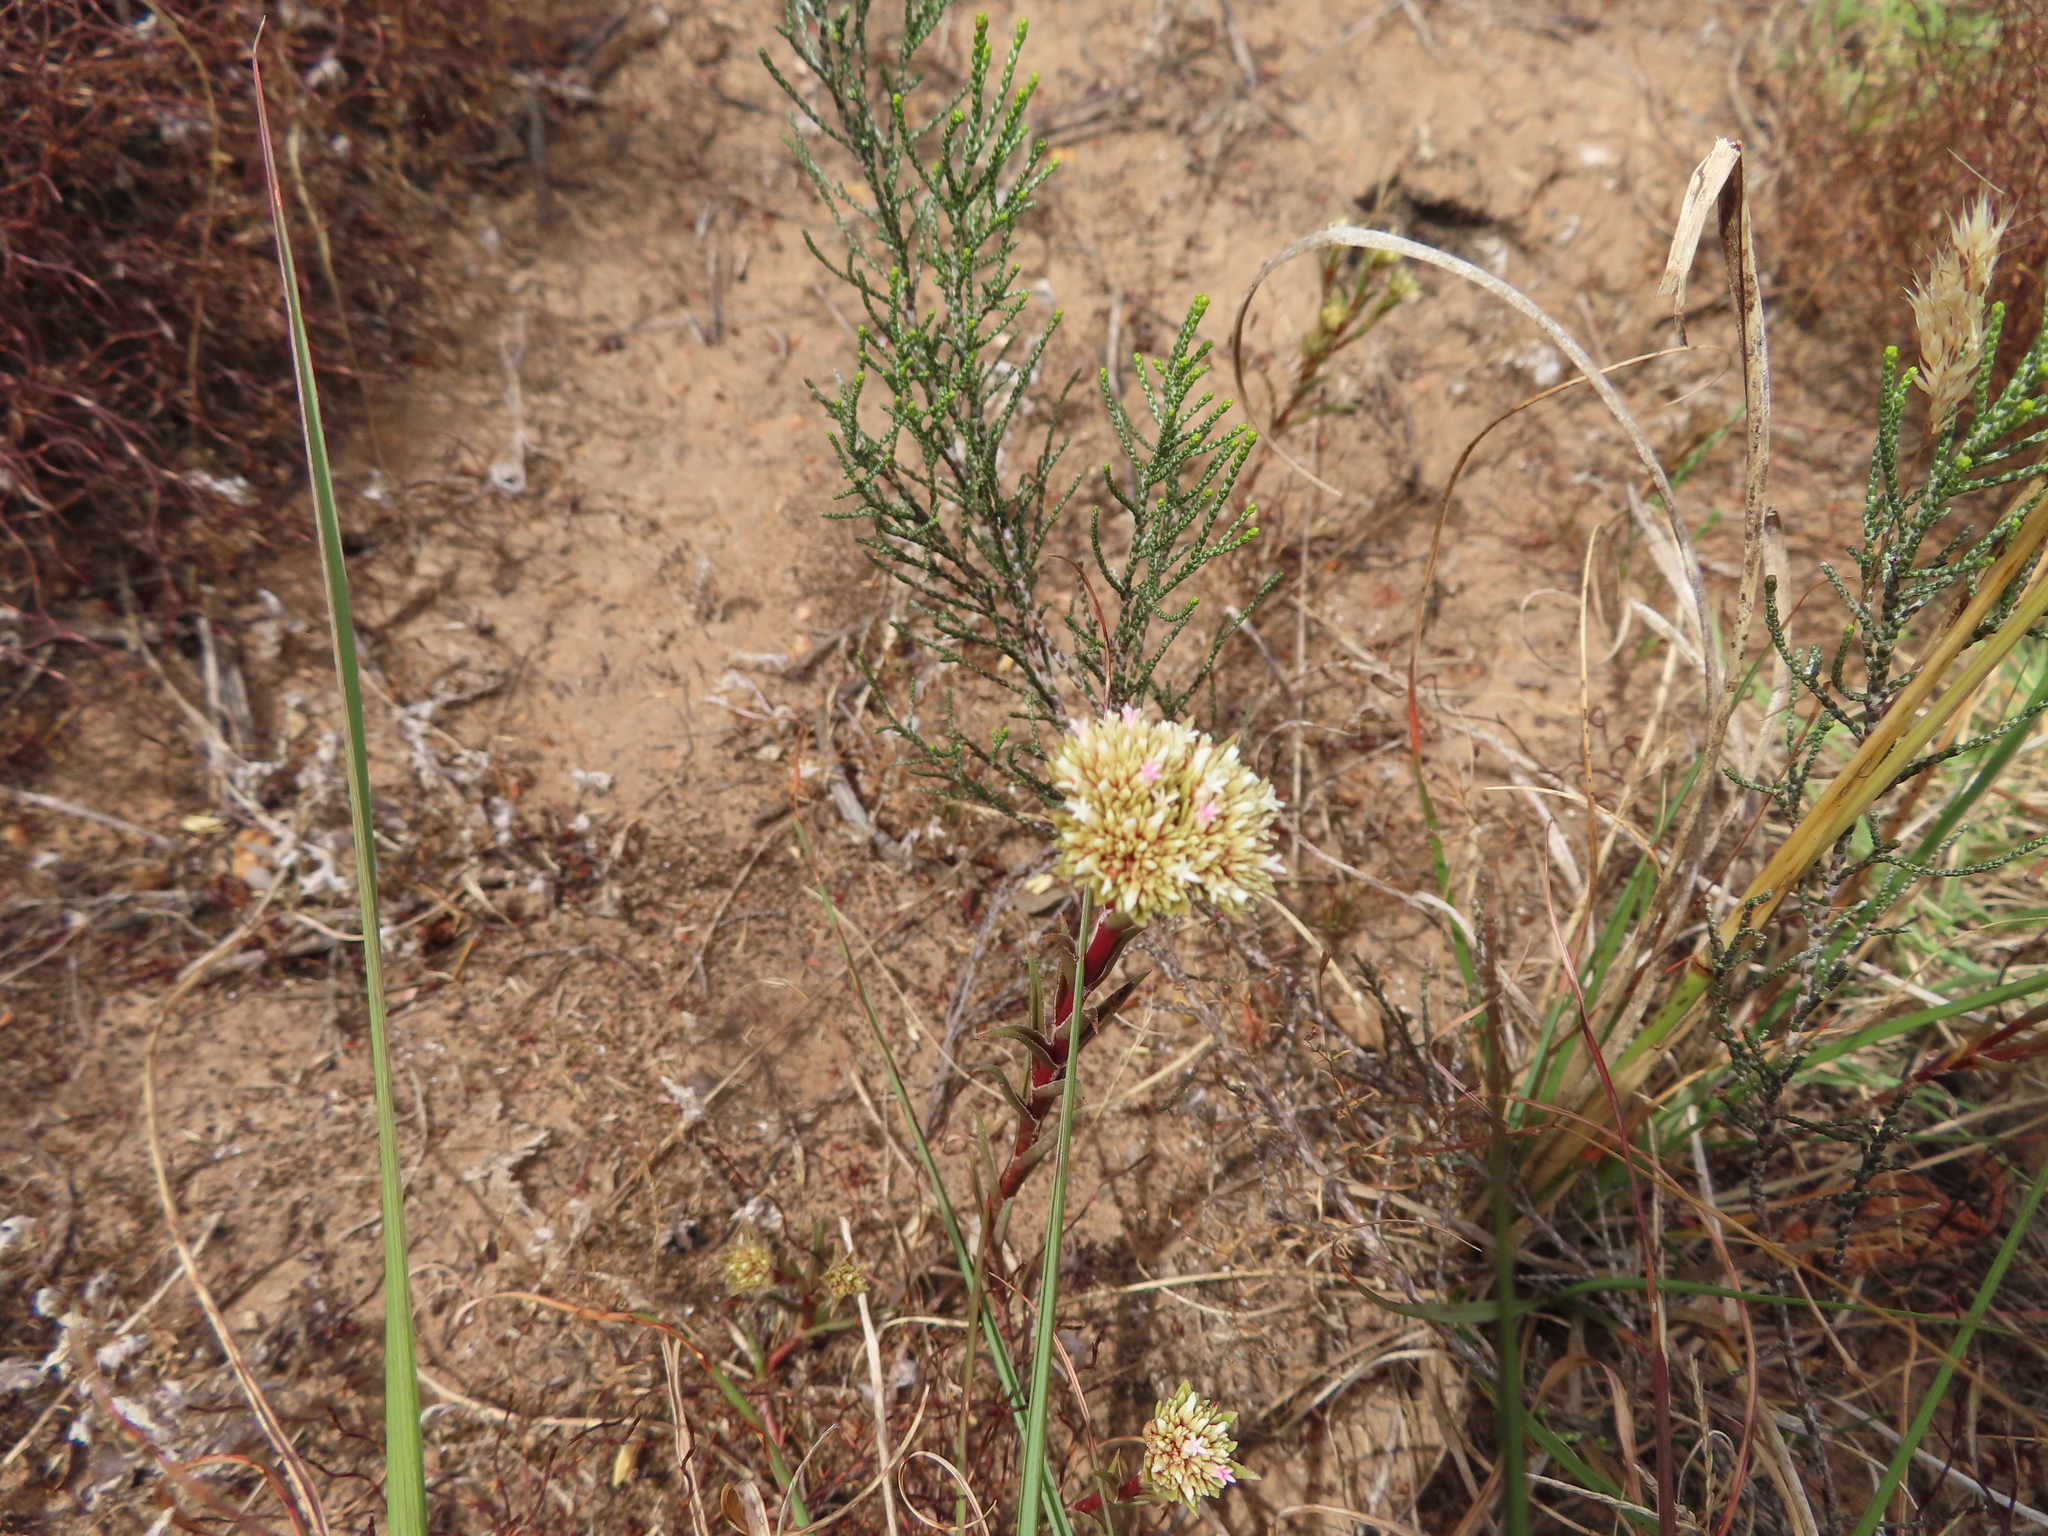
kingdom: Plantae
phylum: Tracheophyta
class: Magnoliopsida
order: Saxifragales
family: Crassulaceae
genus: Crassula
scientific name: Crassula subulata
